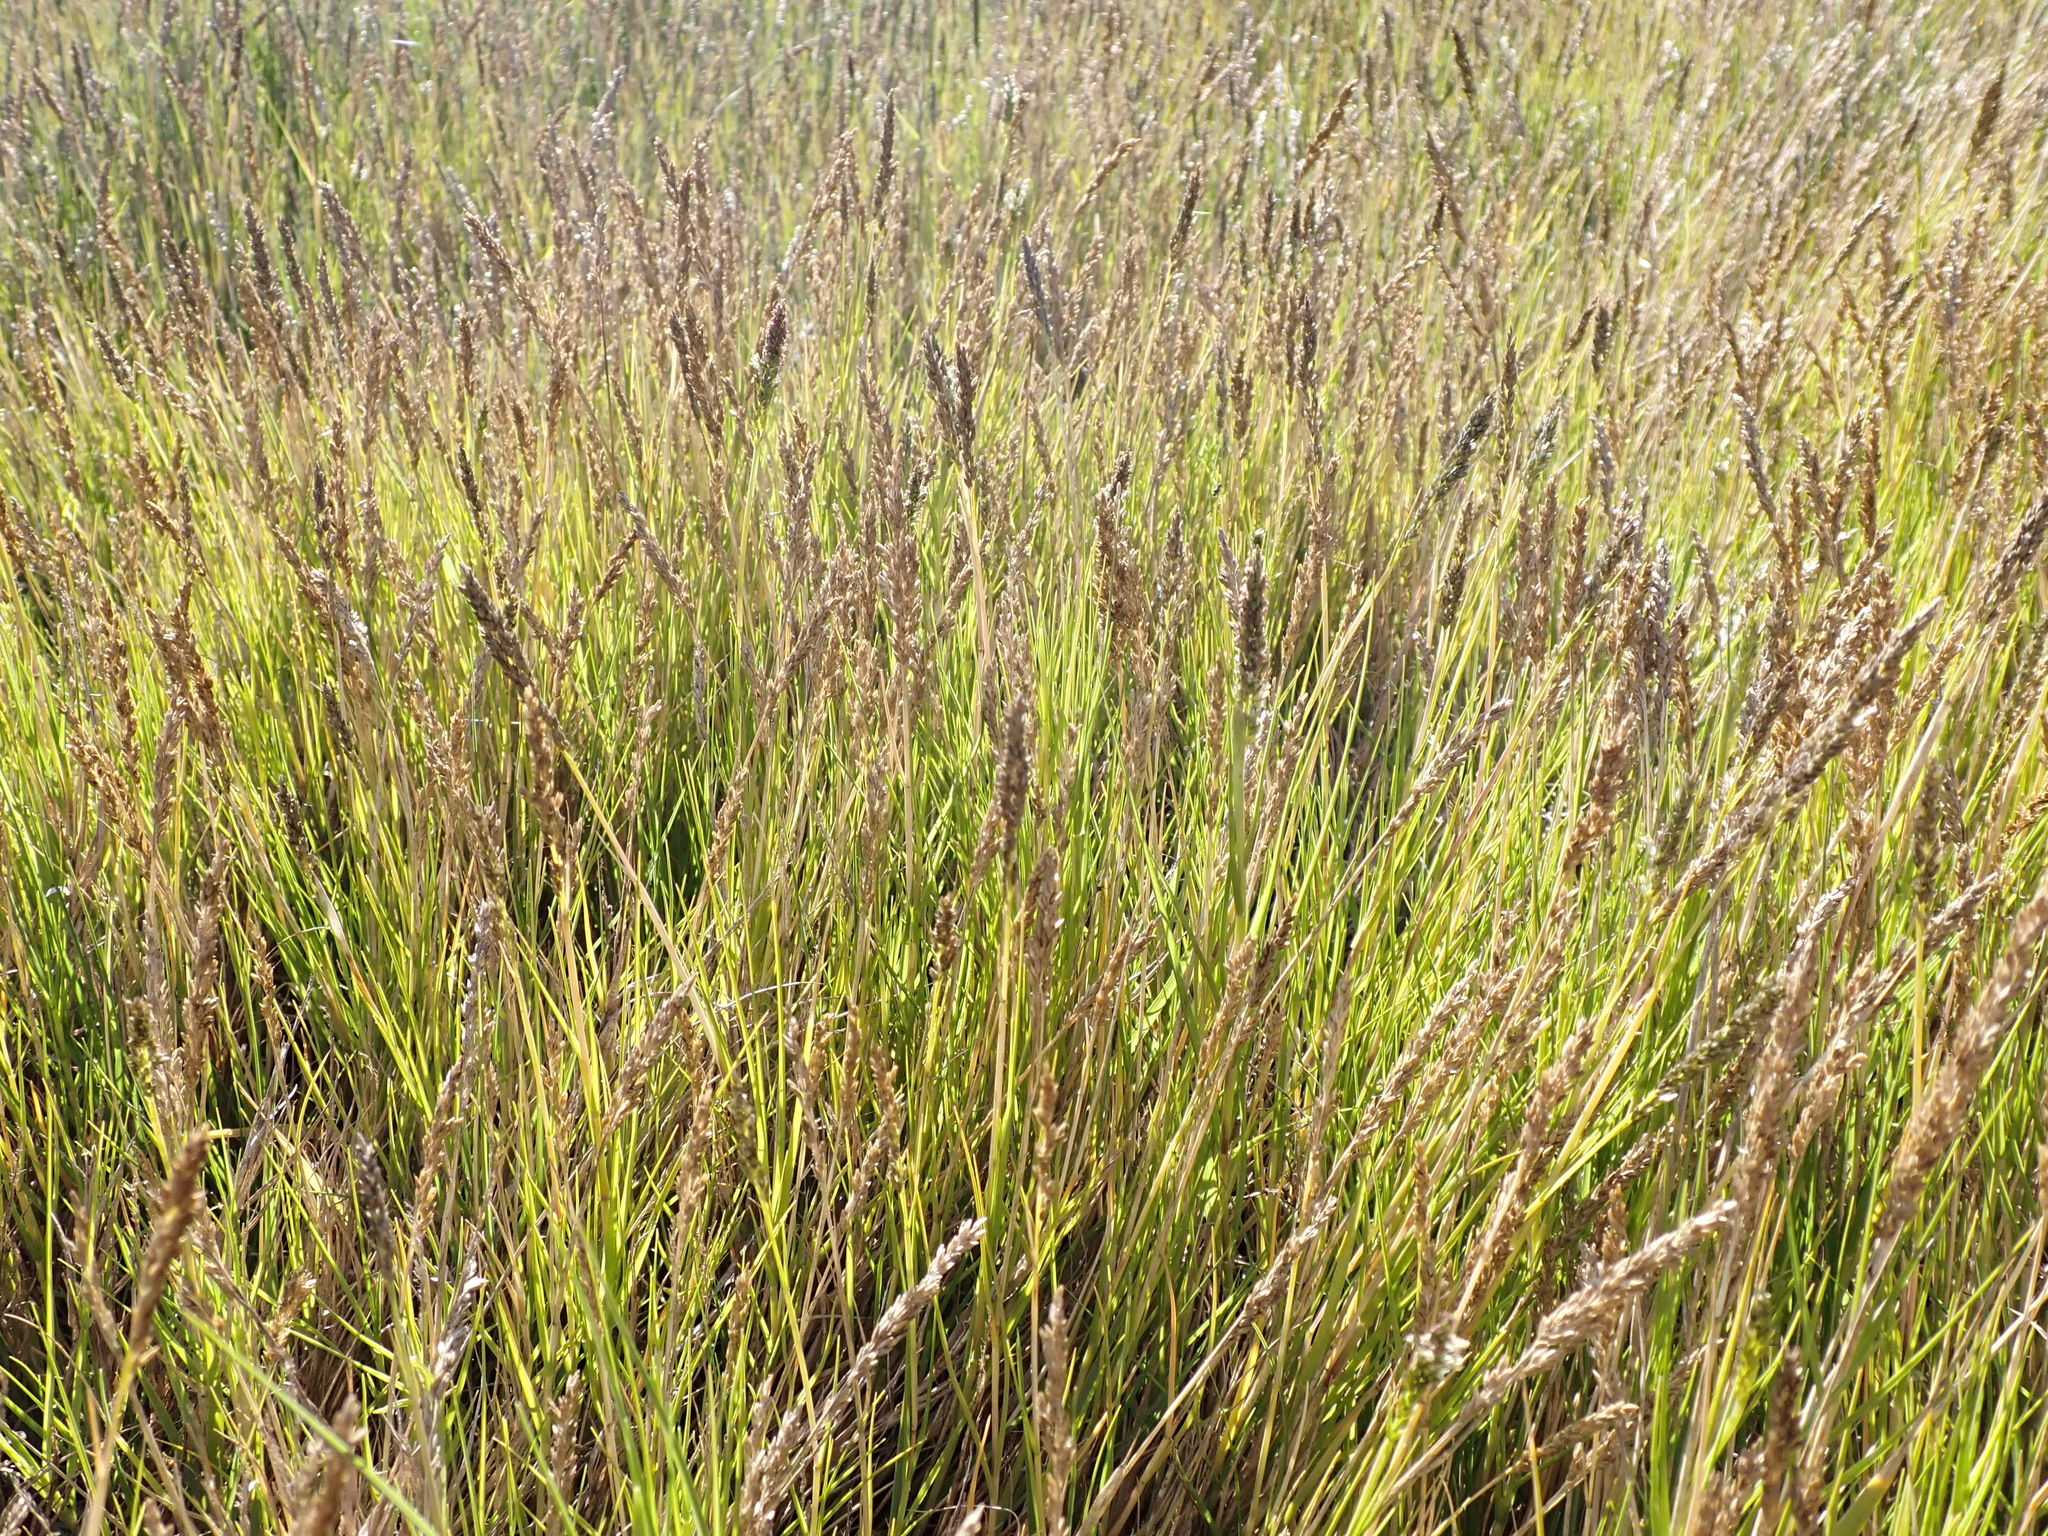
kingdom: Plantae
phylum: Tracheophyta
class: Liliopsida
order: Poales
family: Poaceae
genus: Sporobolus
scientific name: Sporobolus virginicus
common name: Beach dropseed
